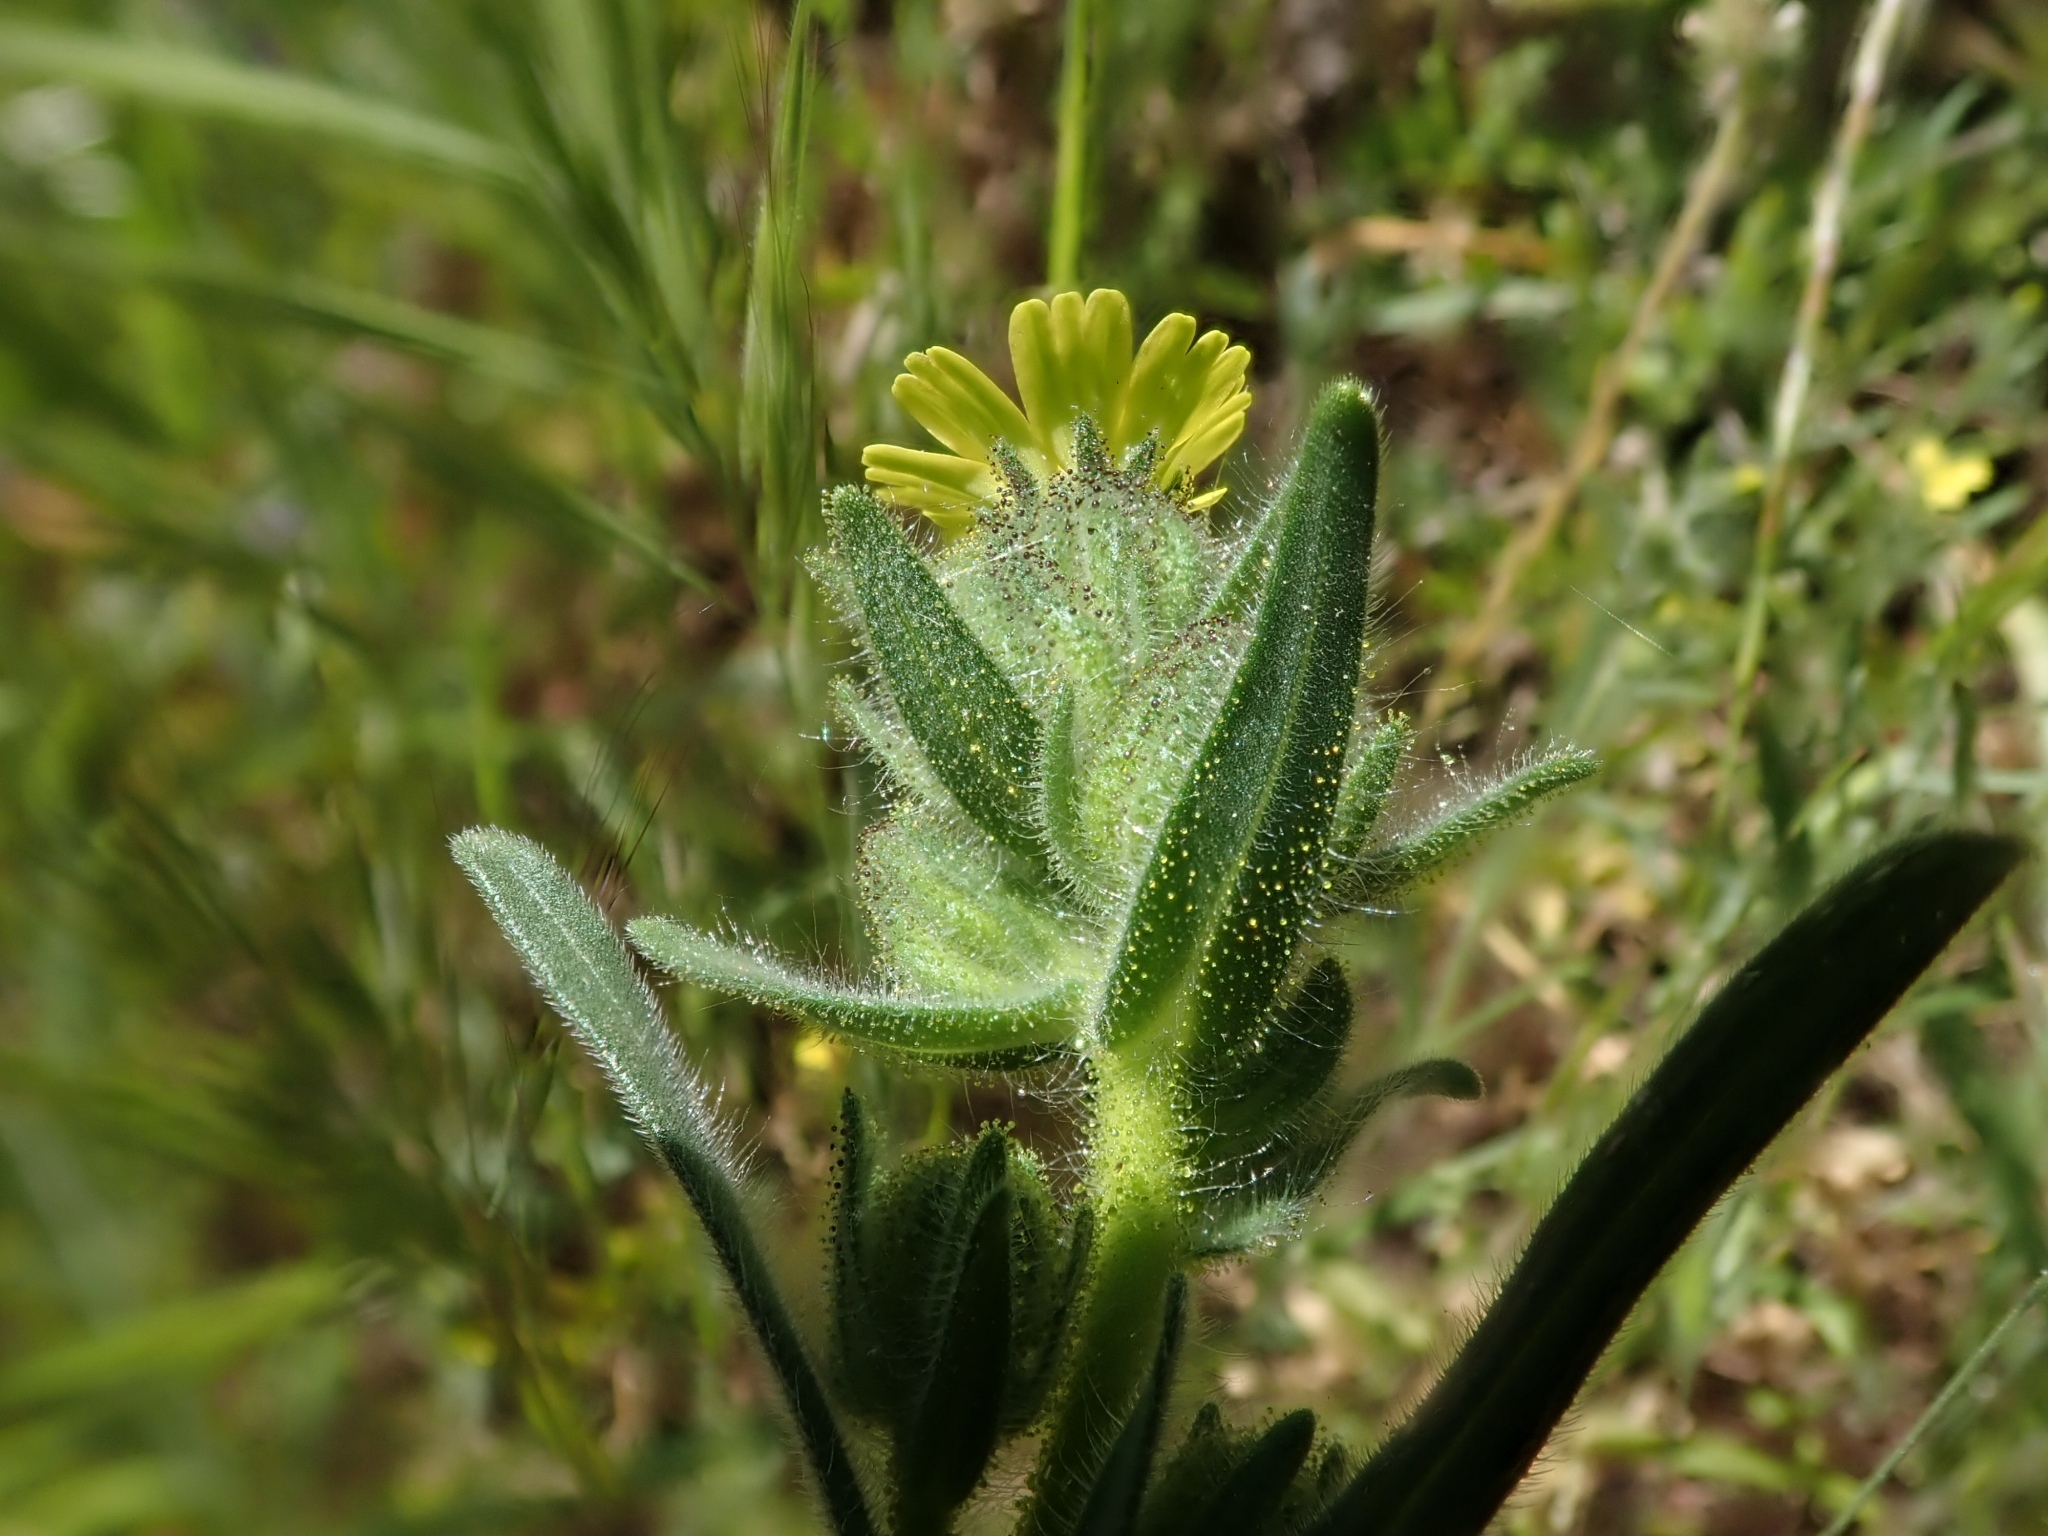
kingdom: Plantae
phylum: Tracheophyta
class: Magnoliopsida
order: Asterales
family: Asteraceae
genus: Madia
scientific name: Madia gracilis
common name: Grassy tarweed
